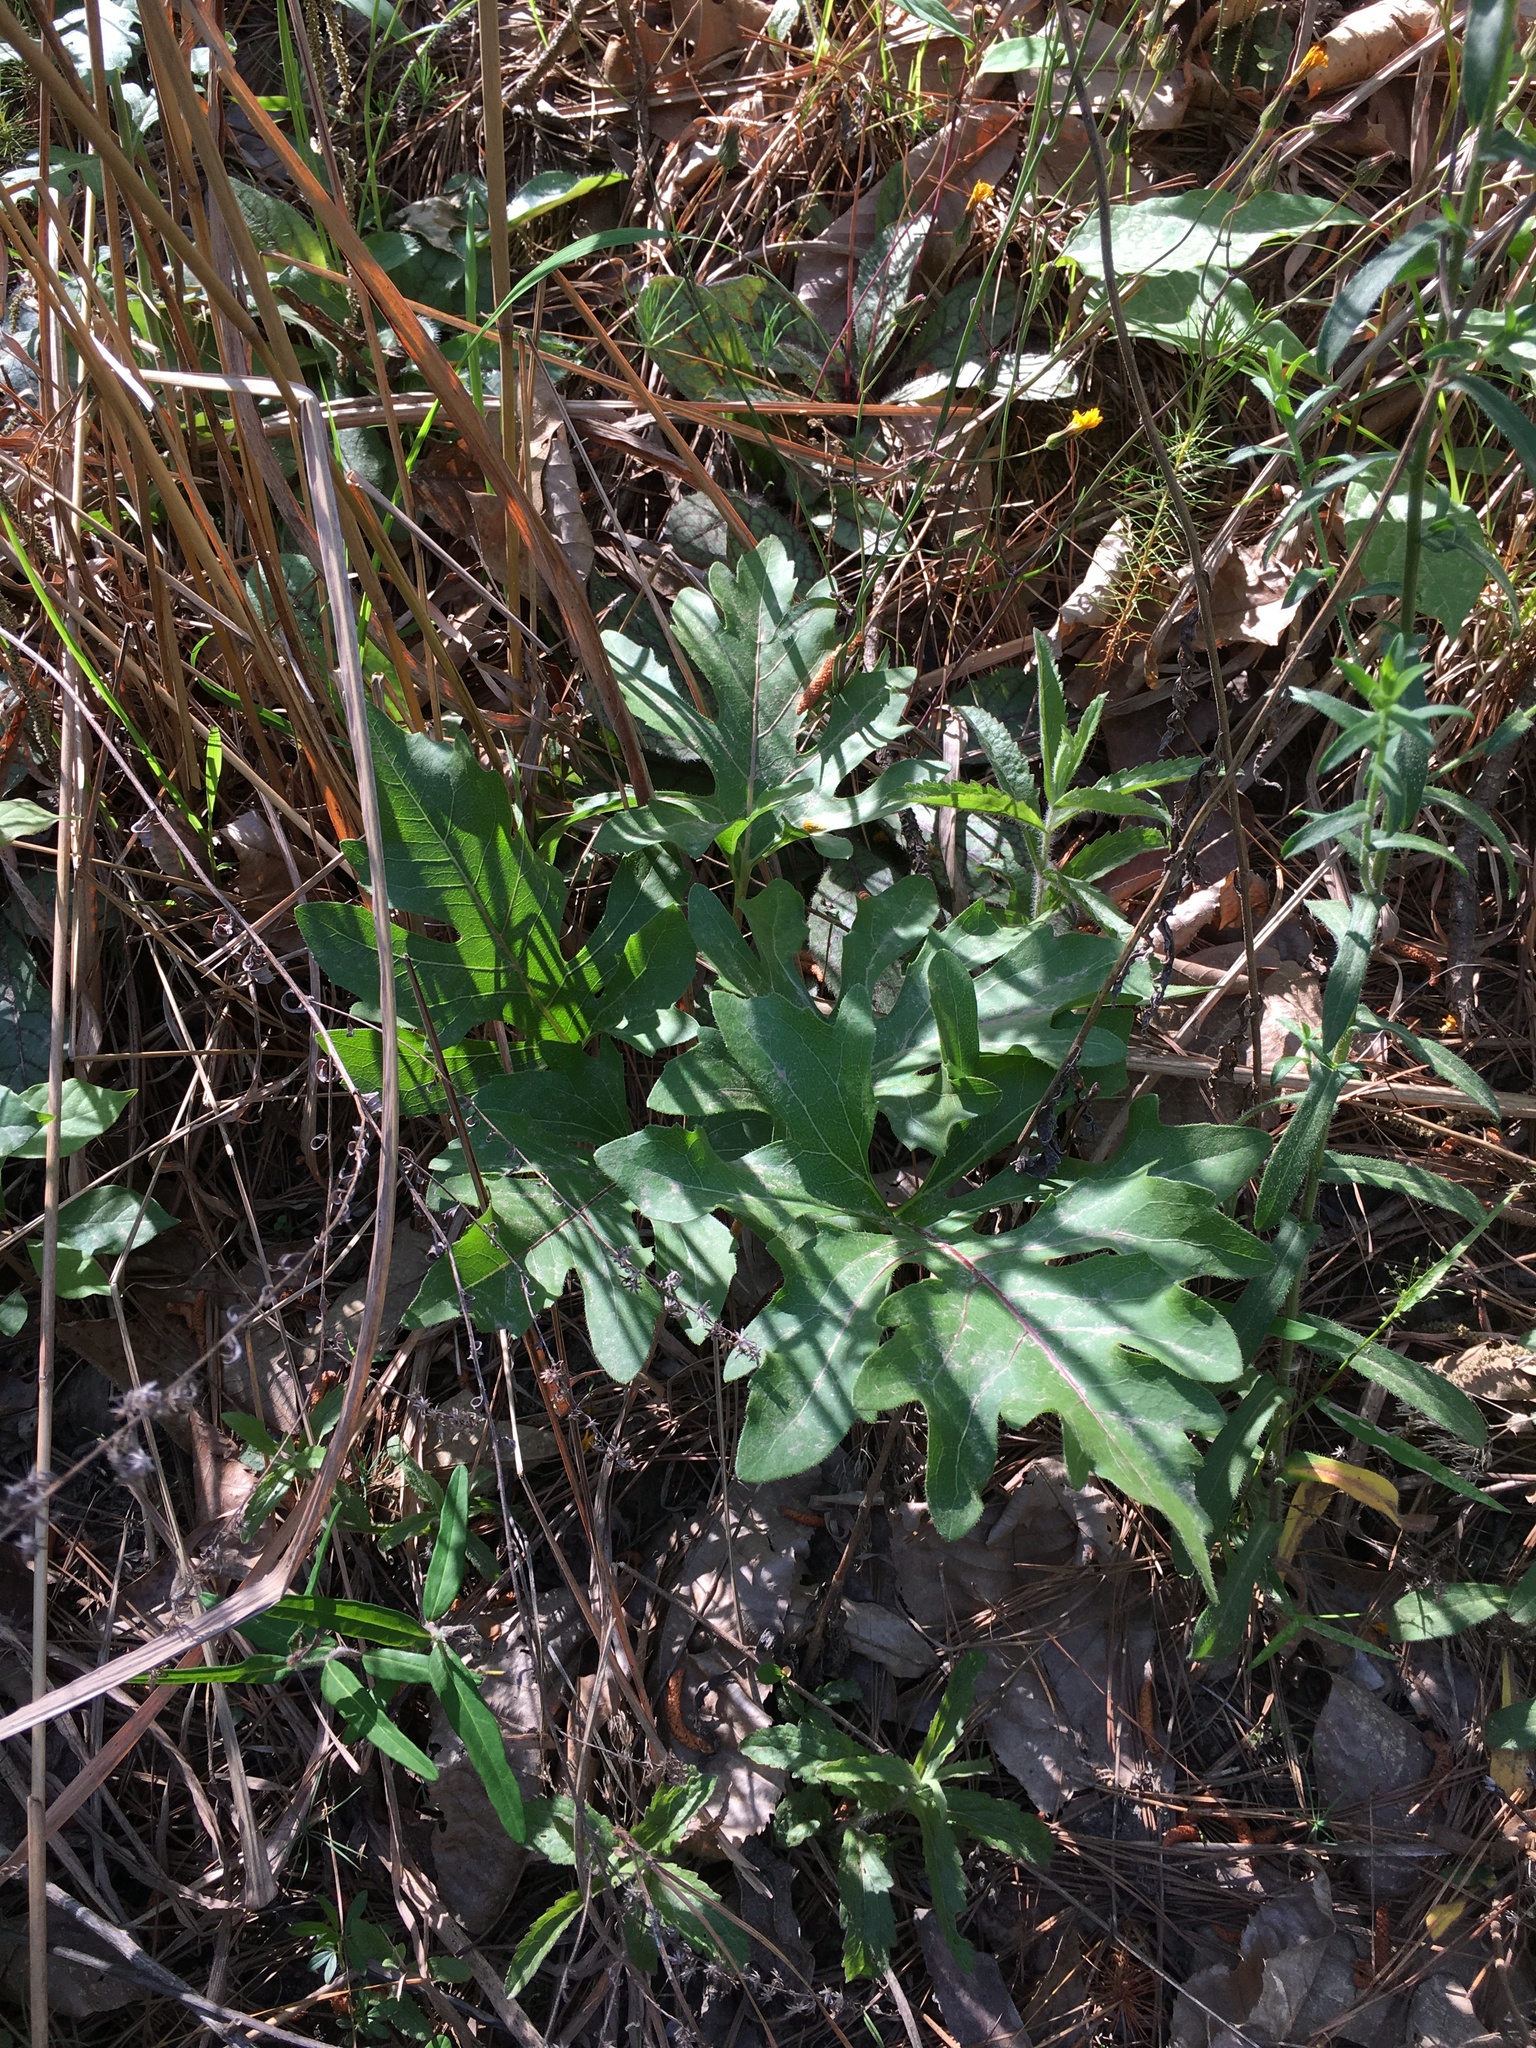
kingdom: Plantae
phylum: Tracheophyta
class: Magnoliopsida
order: Asterales
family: Asteraceae
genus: Silphium
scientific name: Silphium compositum
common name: Lesser basal-leaf rosinweed
